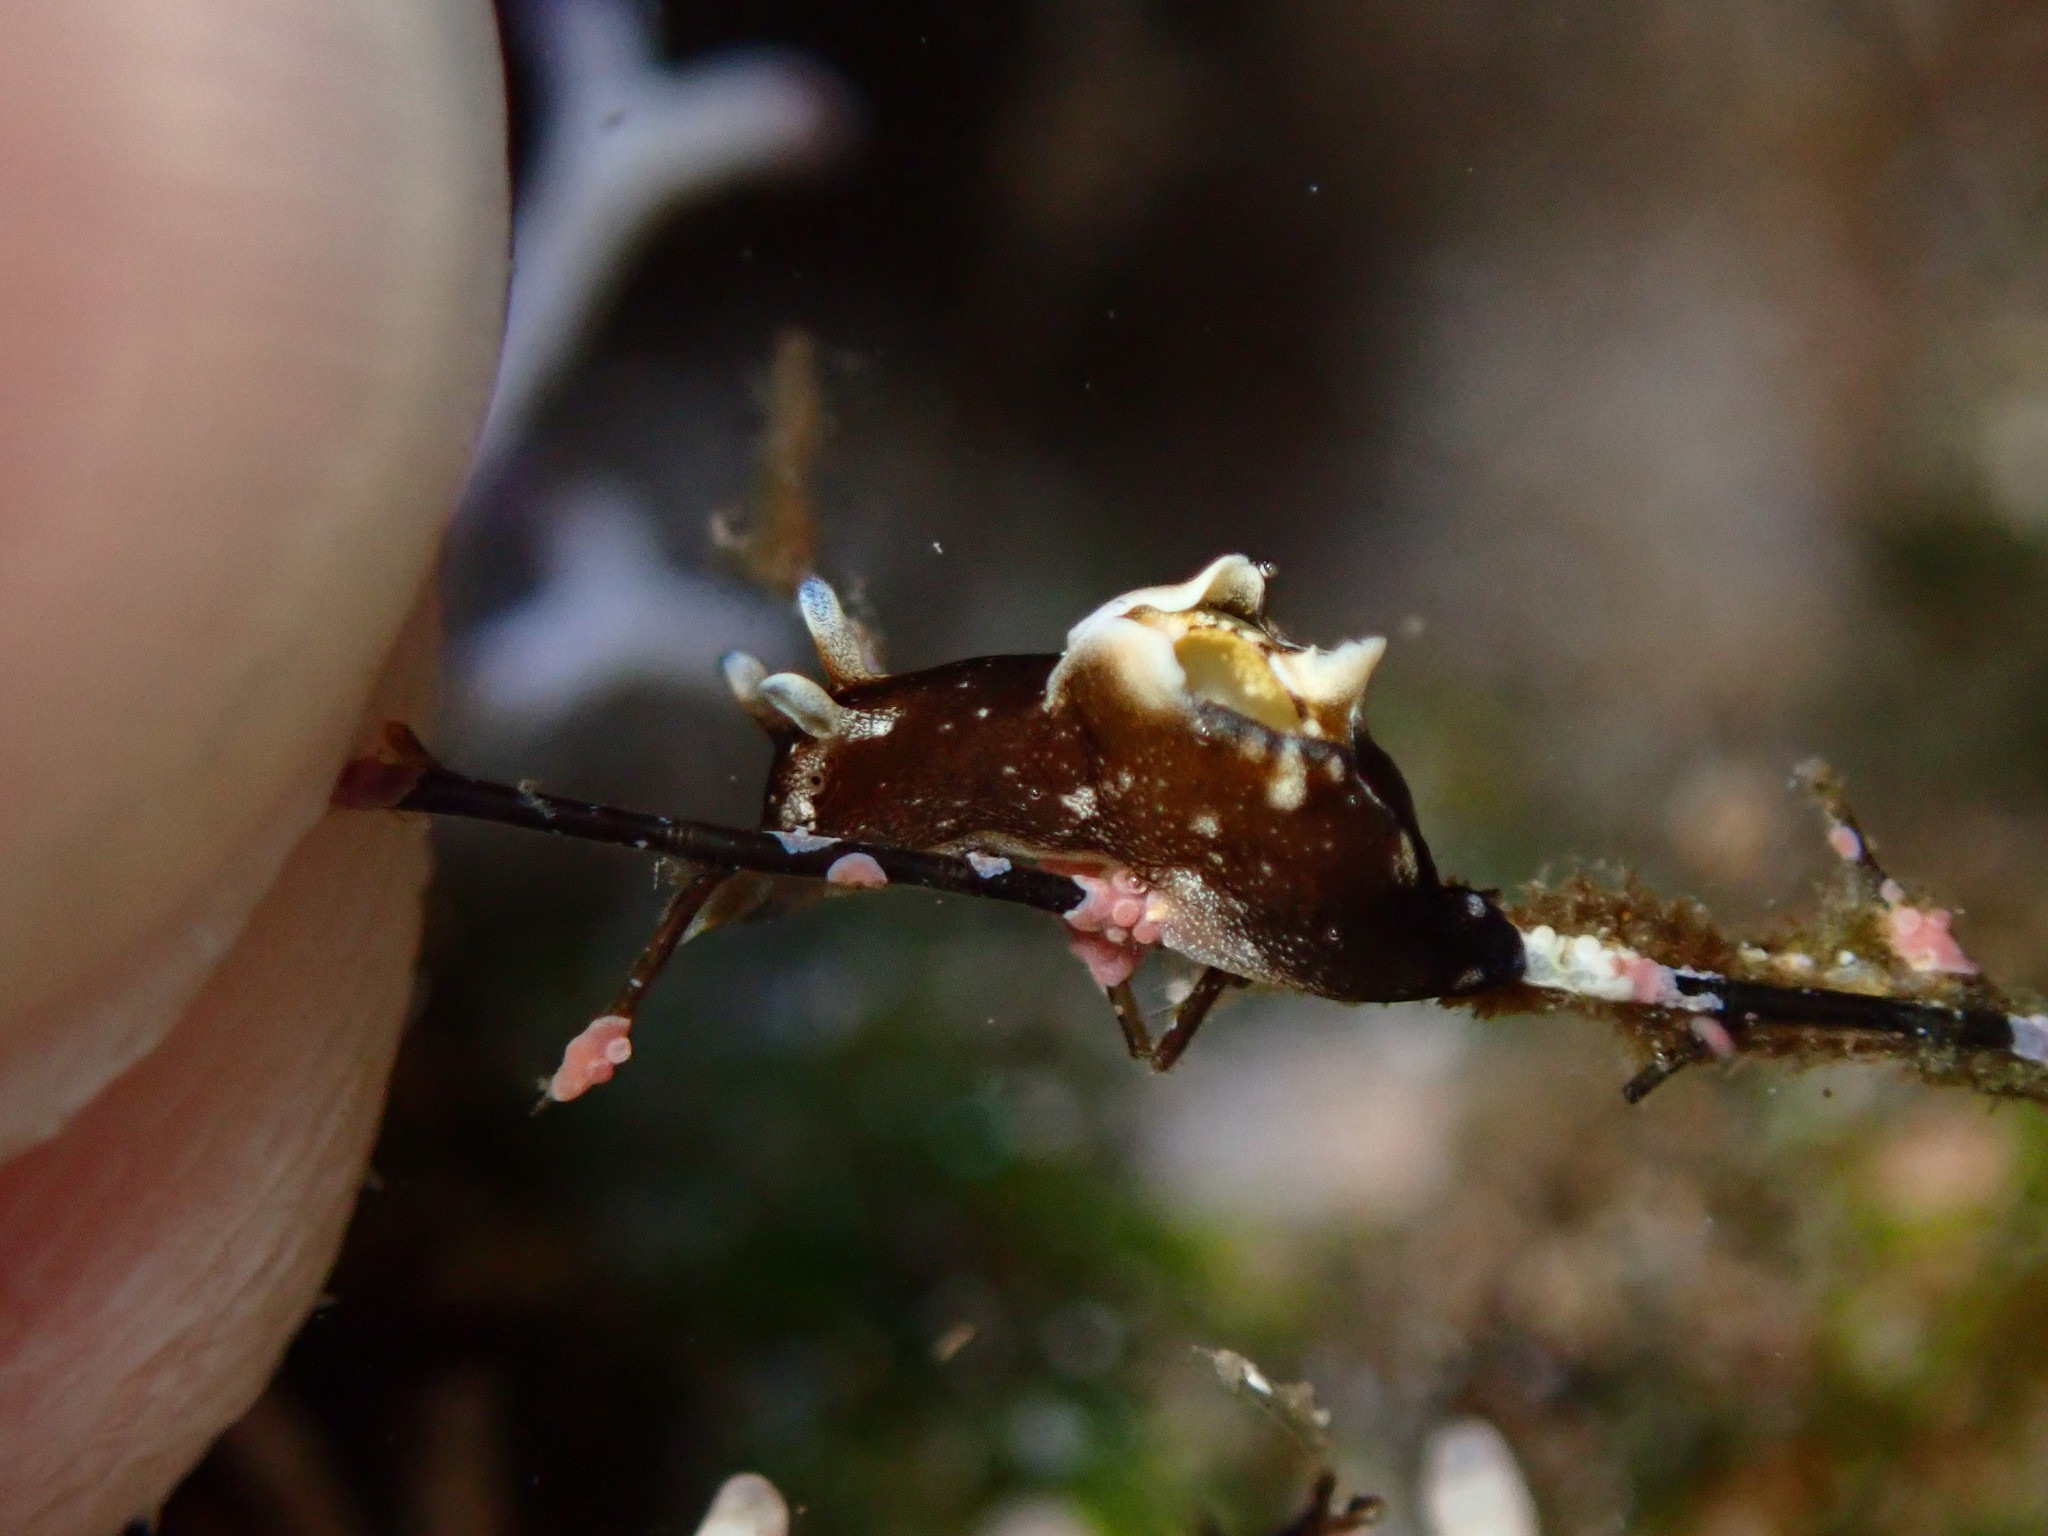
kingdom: Animalia
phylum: Mollusca
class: Gastropoda
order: Aplysiida
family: Aplysiidae
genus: Aplysia
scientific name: Aplysia elongata
